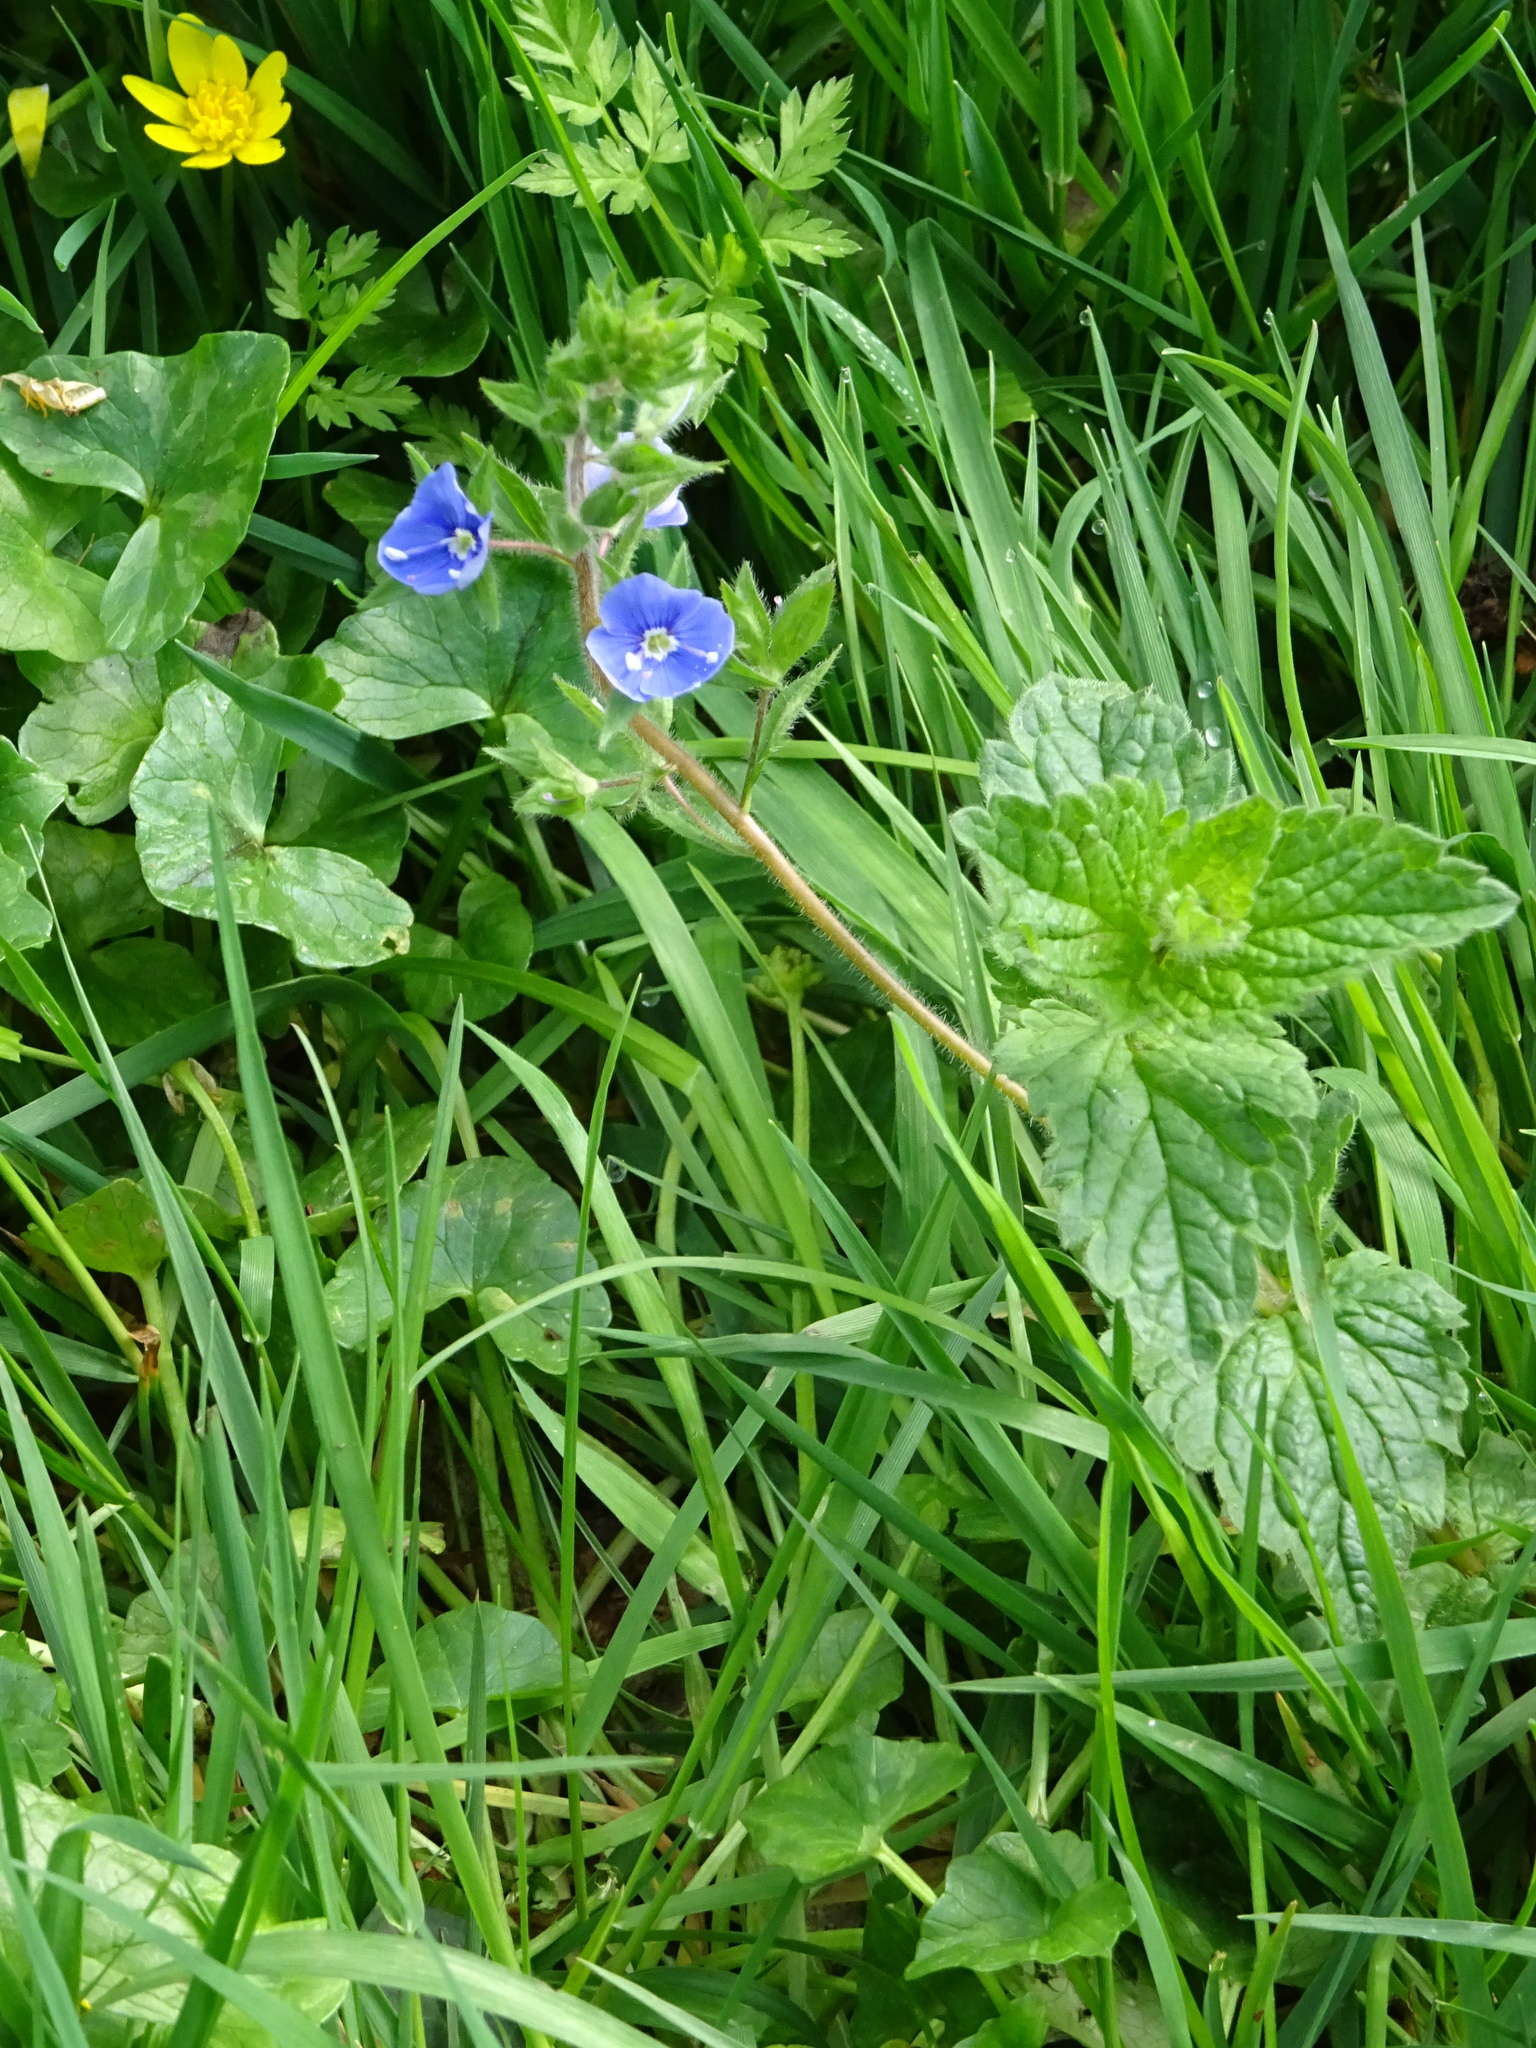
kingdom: Plantae
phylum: Tracheophyta
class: Magnoliopsida
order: Lamiales
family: Plantaginaceae
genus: Veronica
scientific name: Veronica chamaedrys
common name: Germander speedwell
